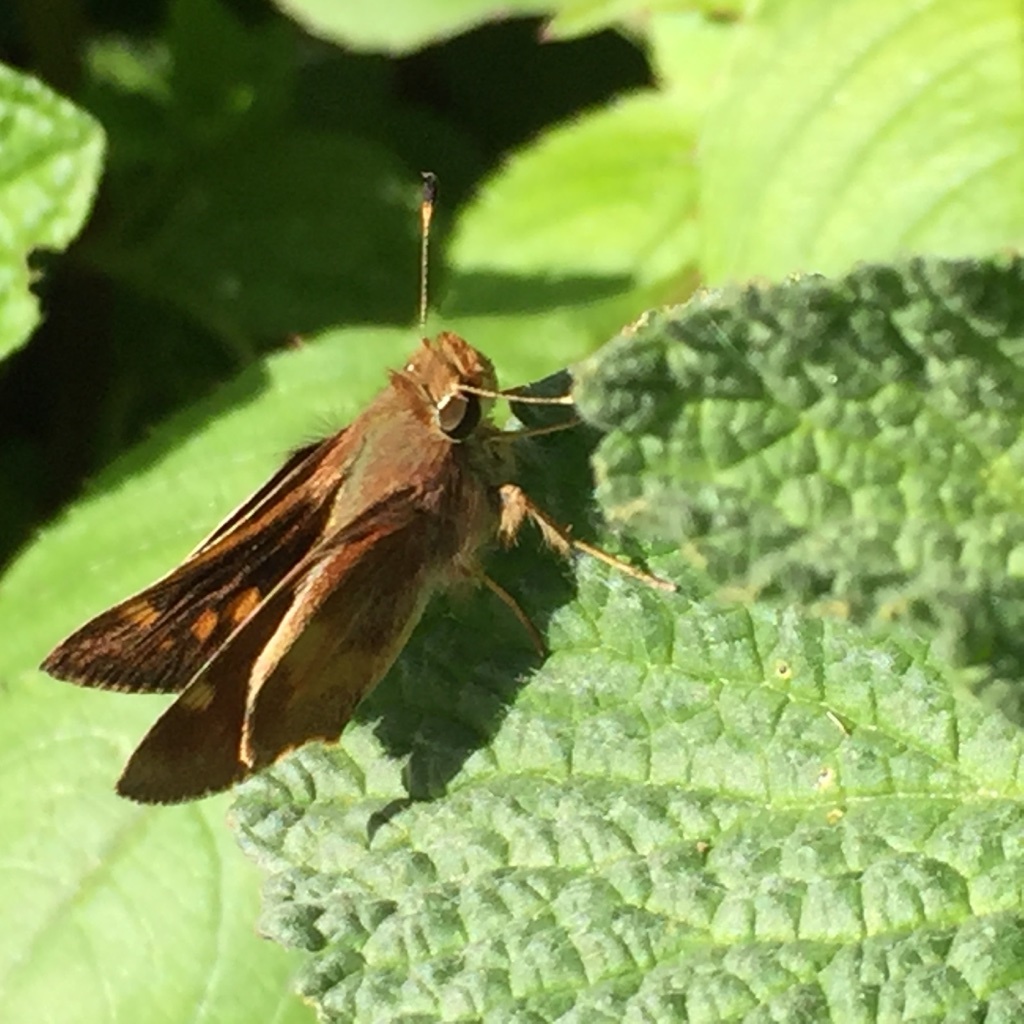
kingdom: Animalia
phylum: Arthropoda
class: Insecta
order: Lepidoptera
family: Hesperiidae
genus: Lon
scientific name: Lon melane
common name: Umber skipper
